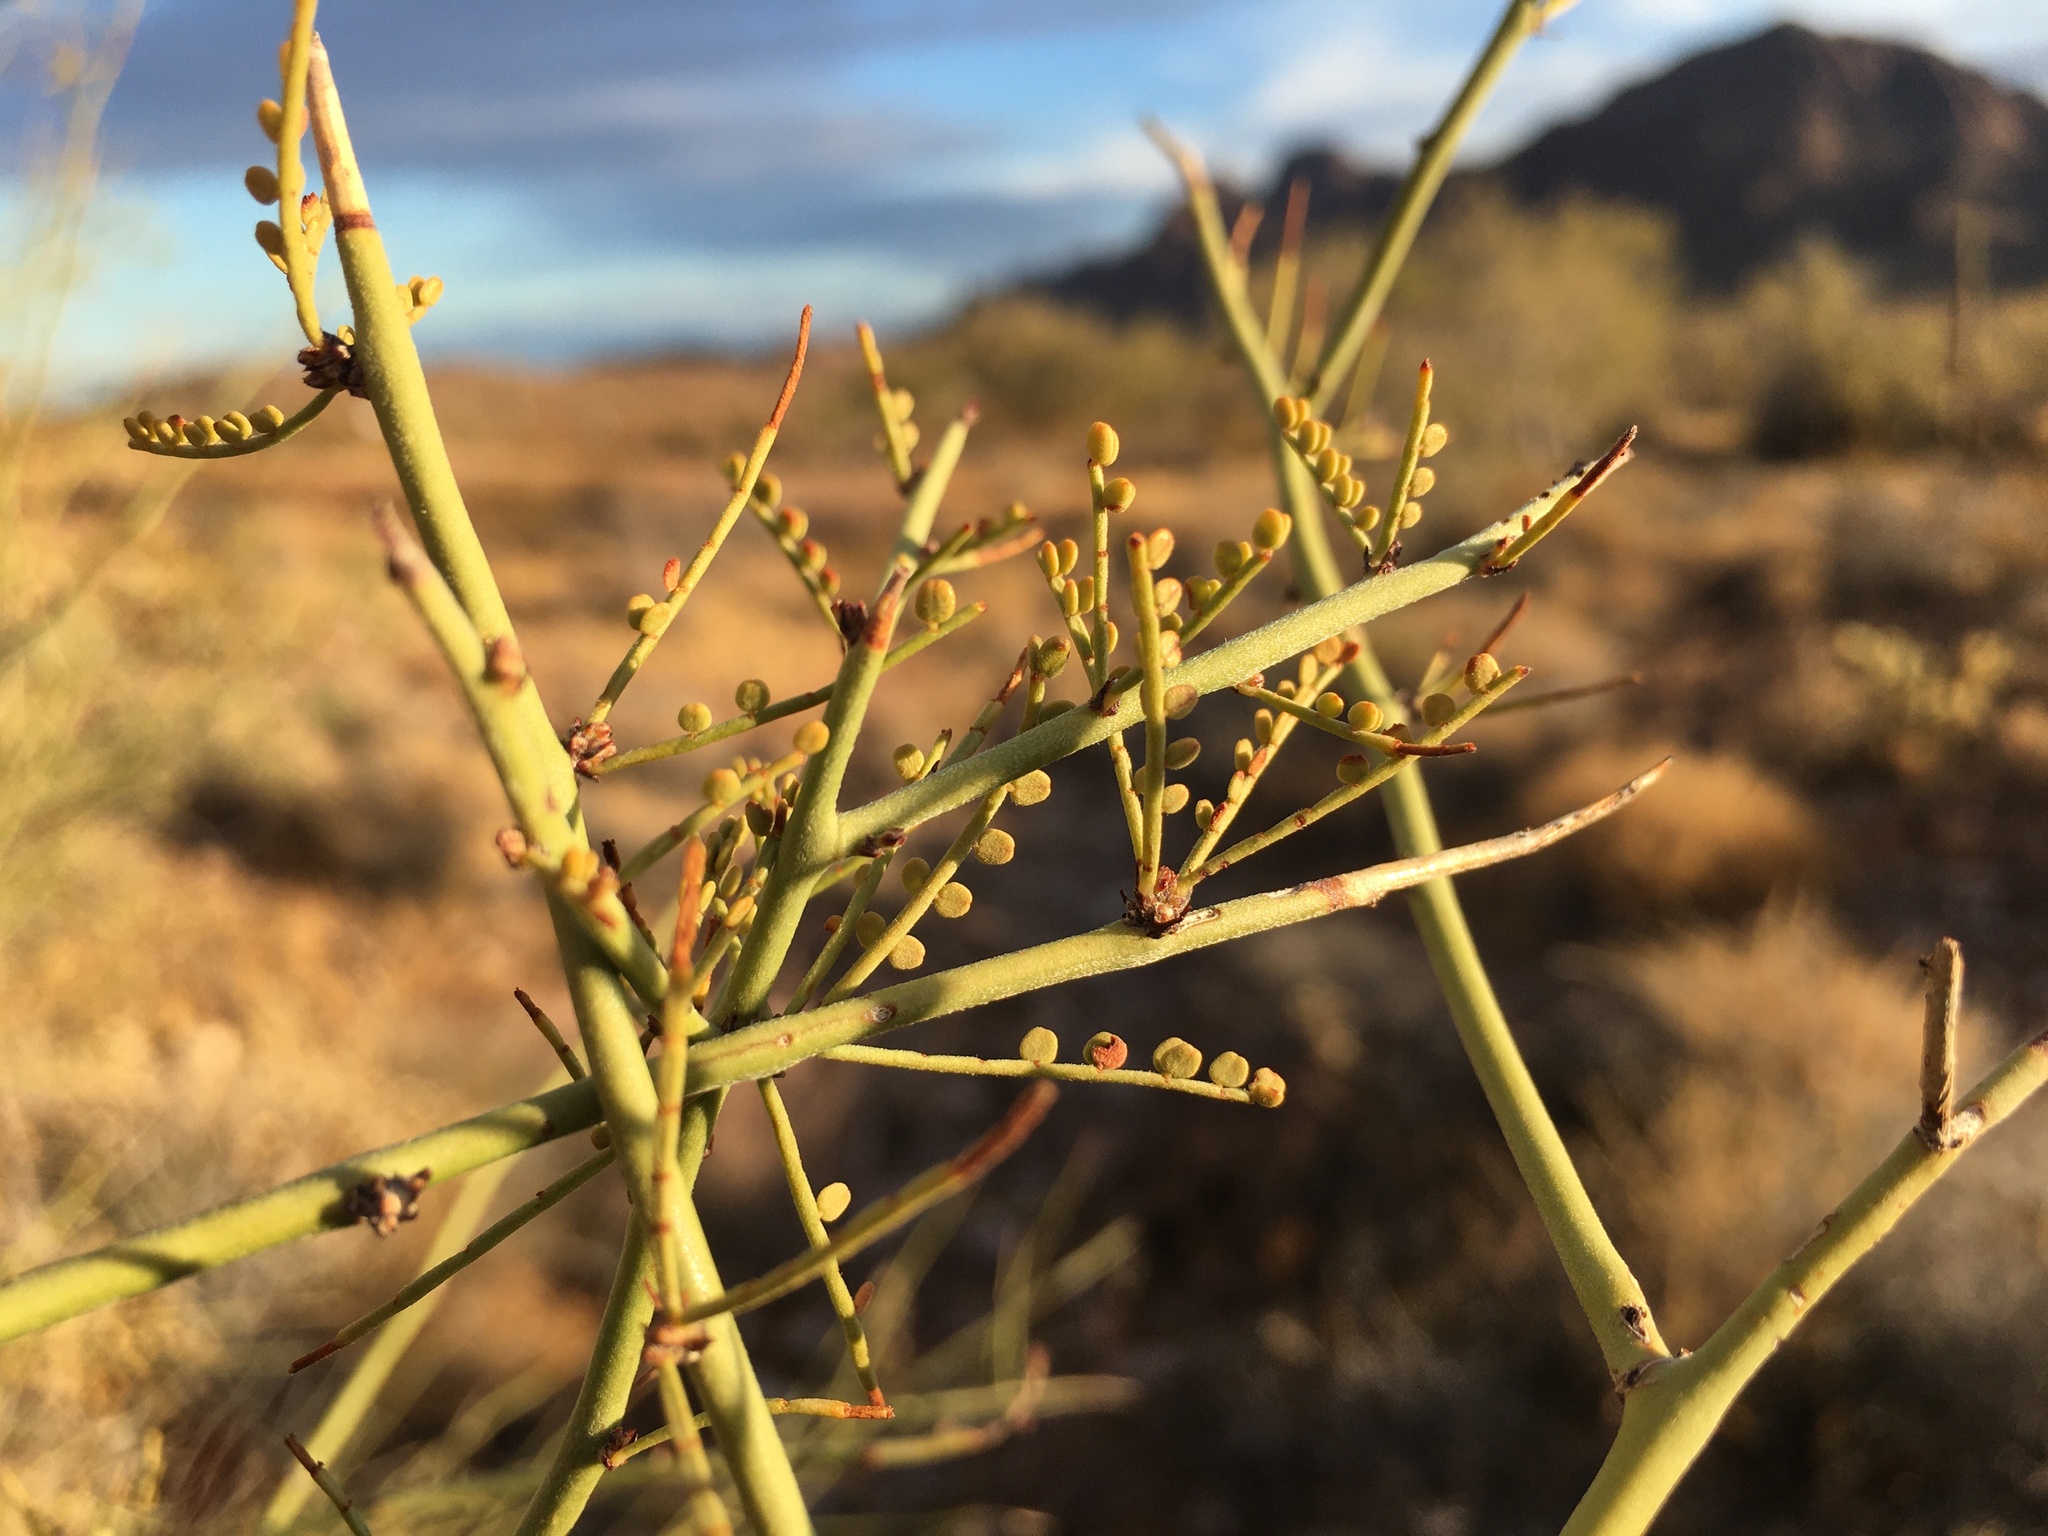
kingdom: Plantae
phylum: Tracheophyta
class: Magnoliopsida
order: Fabales
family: Fabaceae
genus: Parkinsonia
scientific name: Parkinsonia microphylla
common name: Yellow paloverde
